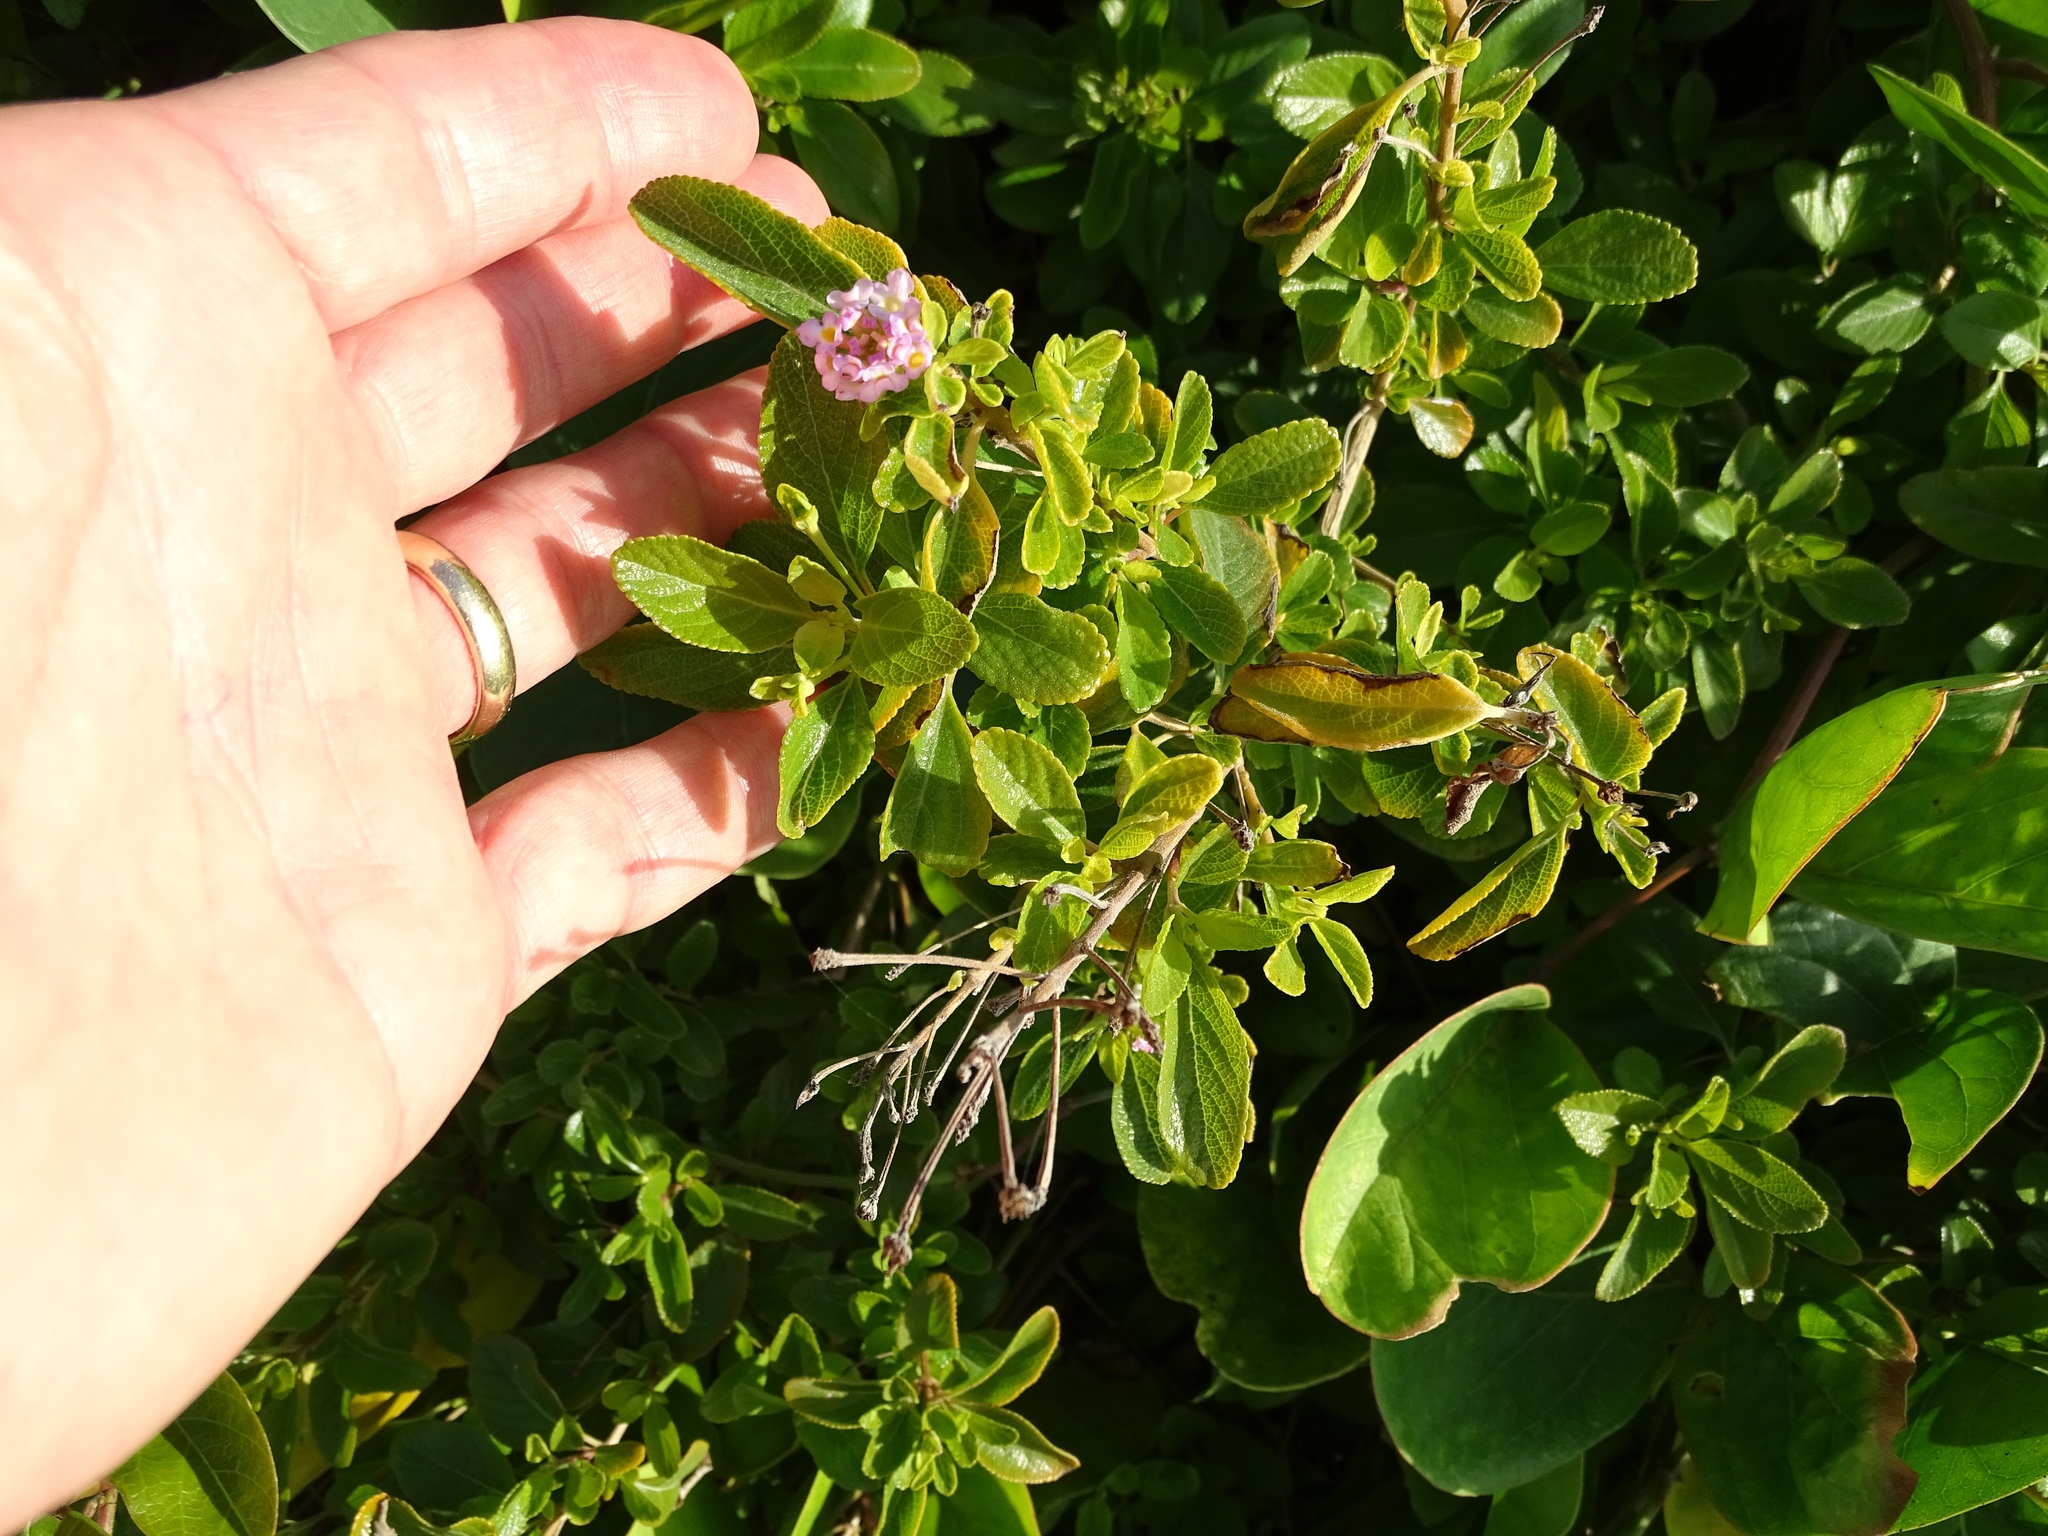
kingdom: Plantae
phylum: Tracheophyta
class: Magnoliopsida
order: Lamiales
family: Verbenaceae
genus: Lantana
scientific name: Lantana involucrata
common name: Black sage
